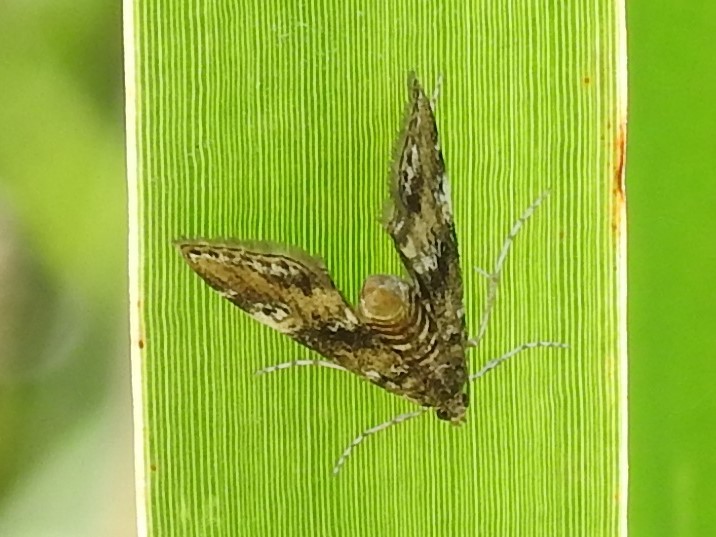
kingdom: Animalia
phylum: Arthropoda
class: Insecta
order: Lepidoptera
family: Crambidae
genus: Elophila
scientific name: Elophila obliteralis
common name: Waterlily leafcutter moth
